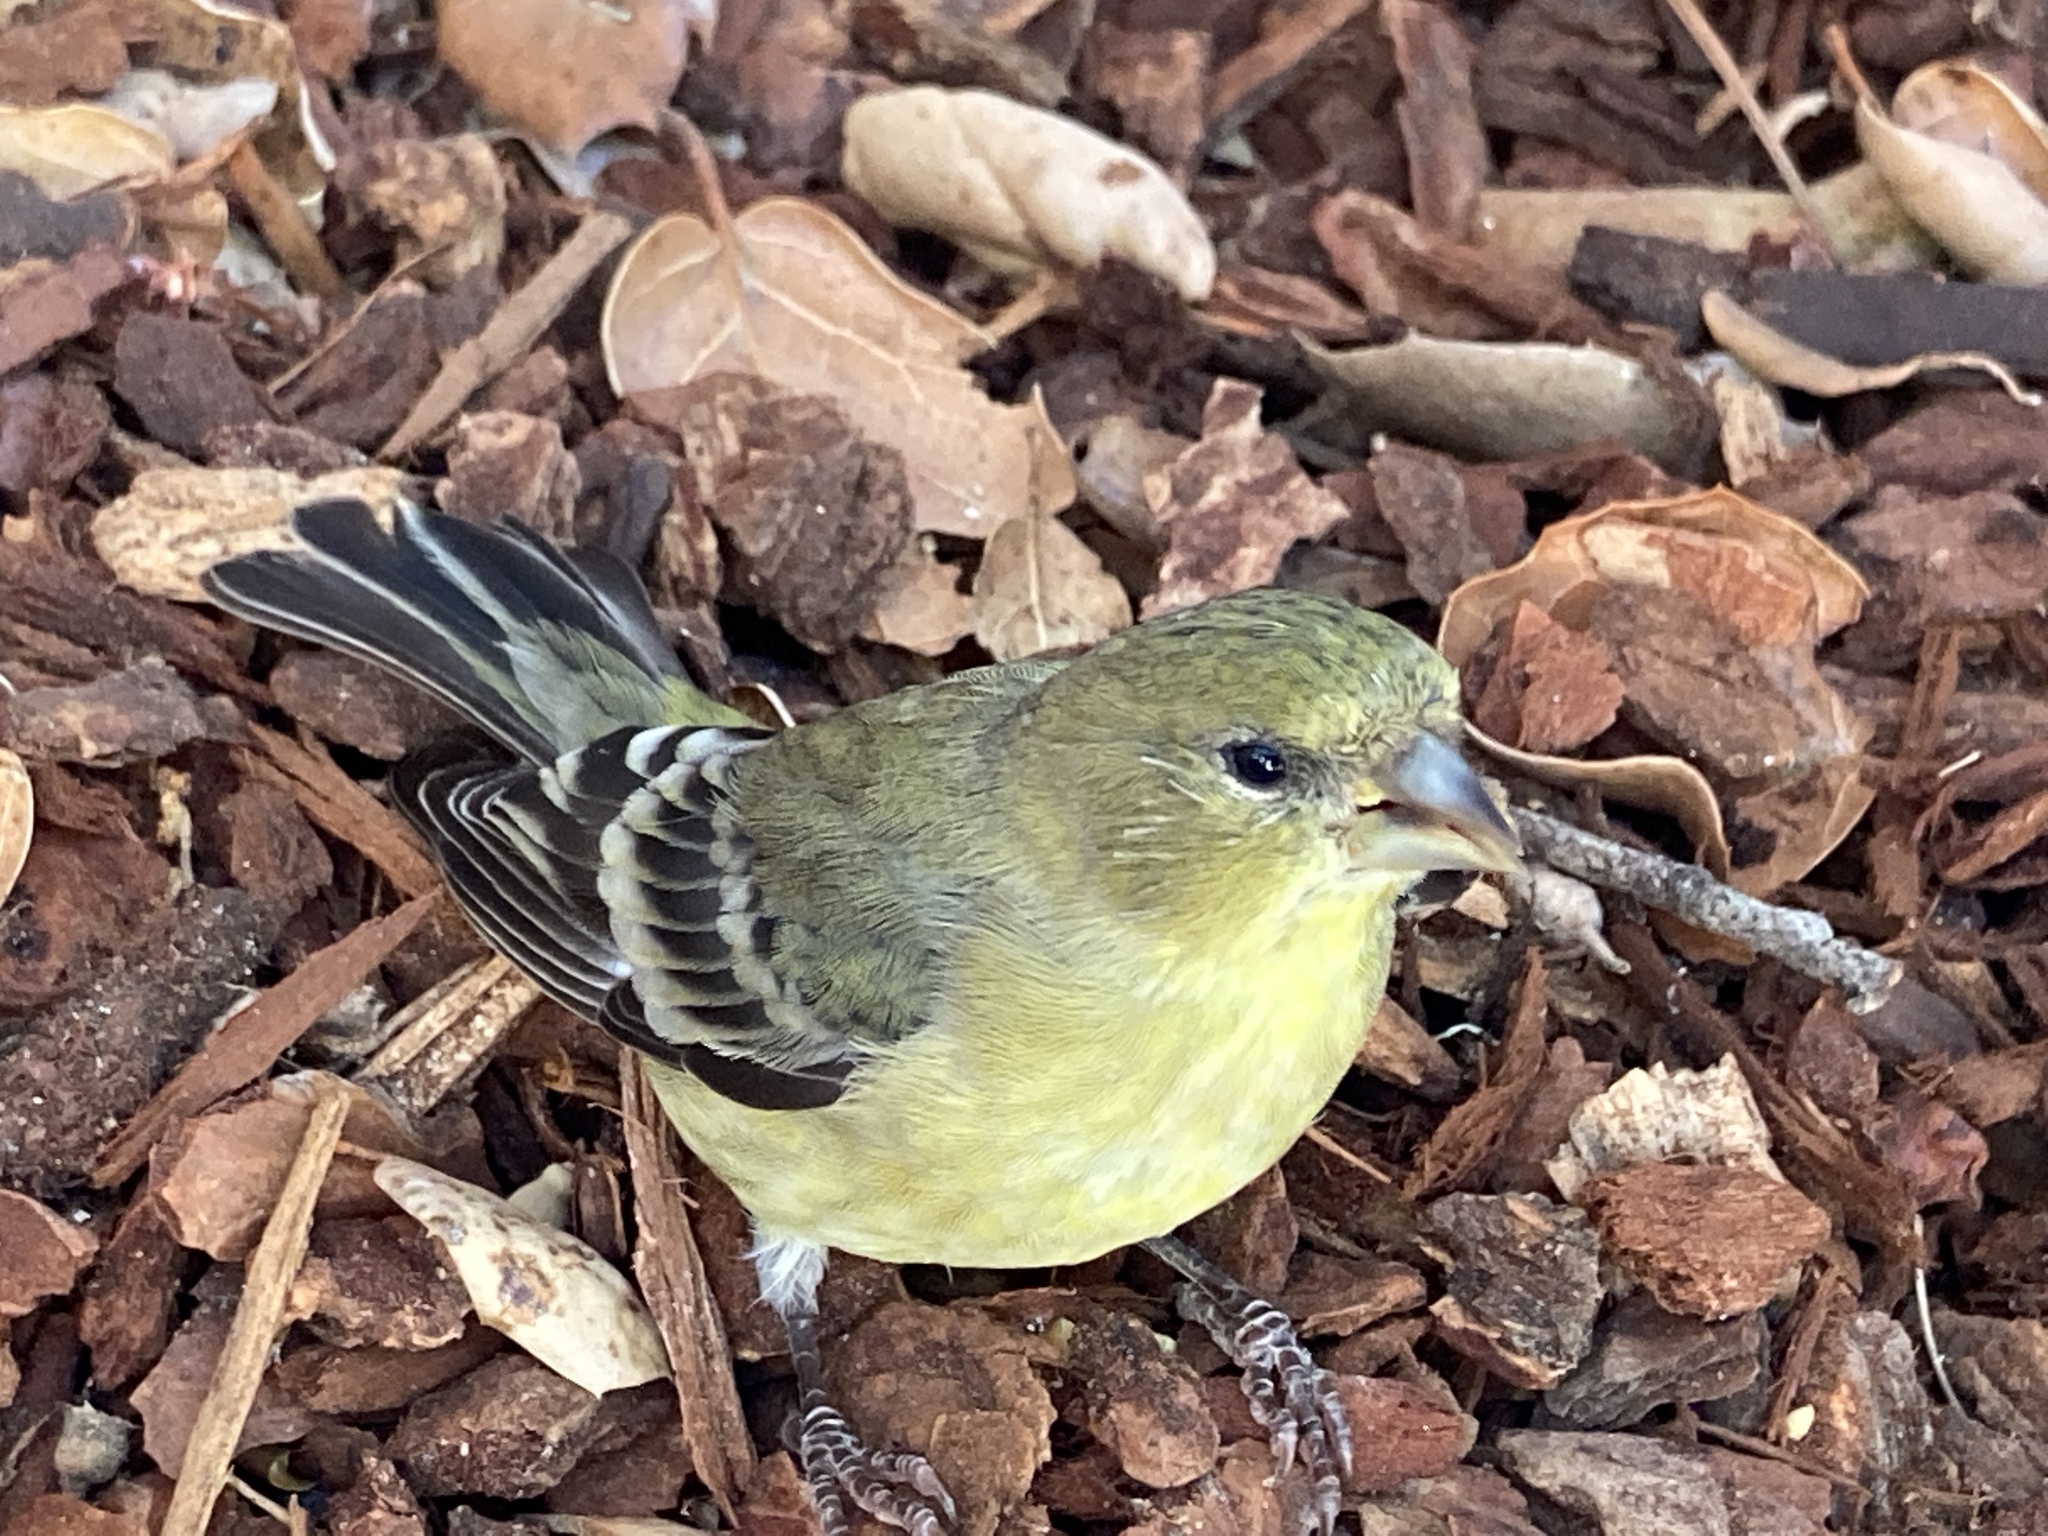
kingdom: Animalia
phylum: Chordata
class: Aves
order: Passeriformes
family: Fringillidae
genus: Spinus
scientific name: Spinus psaltria
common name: Lesser goldfinch
